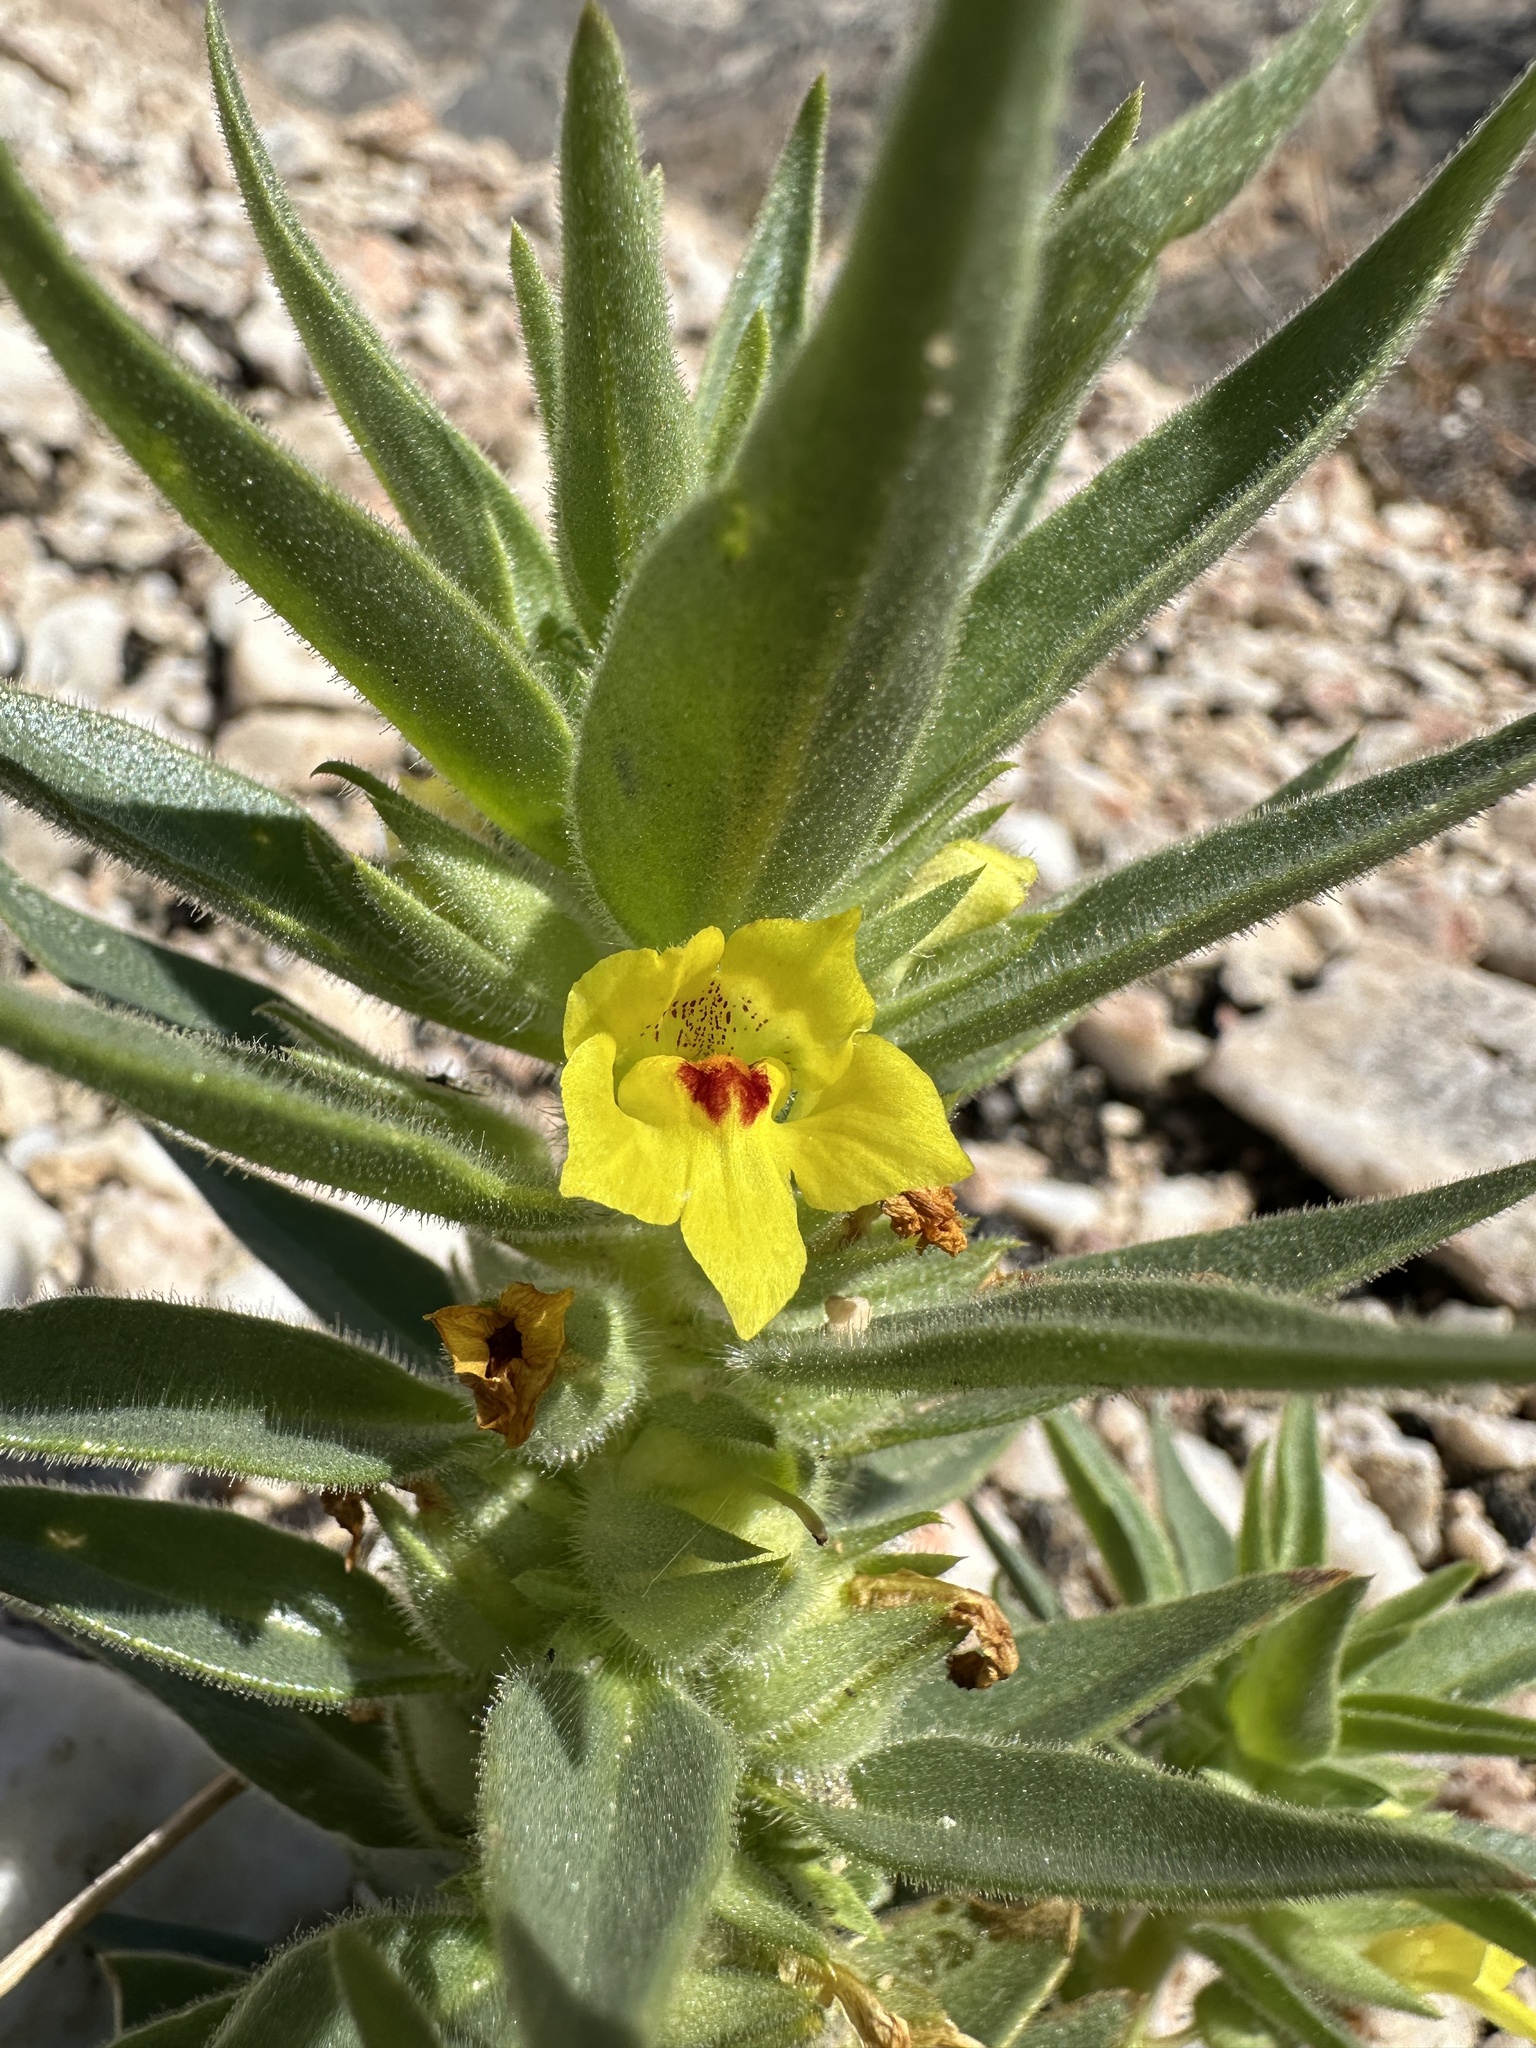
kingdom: Plantae
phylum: Tracheophyta
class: Magnoliopsida
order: Lamiales
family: Plantaginaceae
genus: Mohavea
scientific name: Mohavea breviflora
